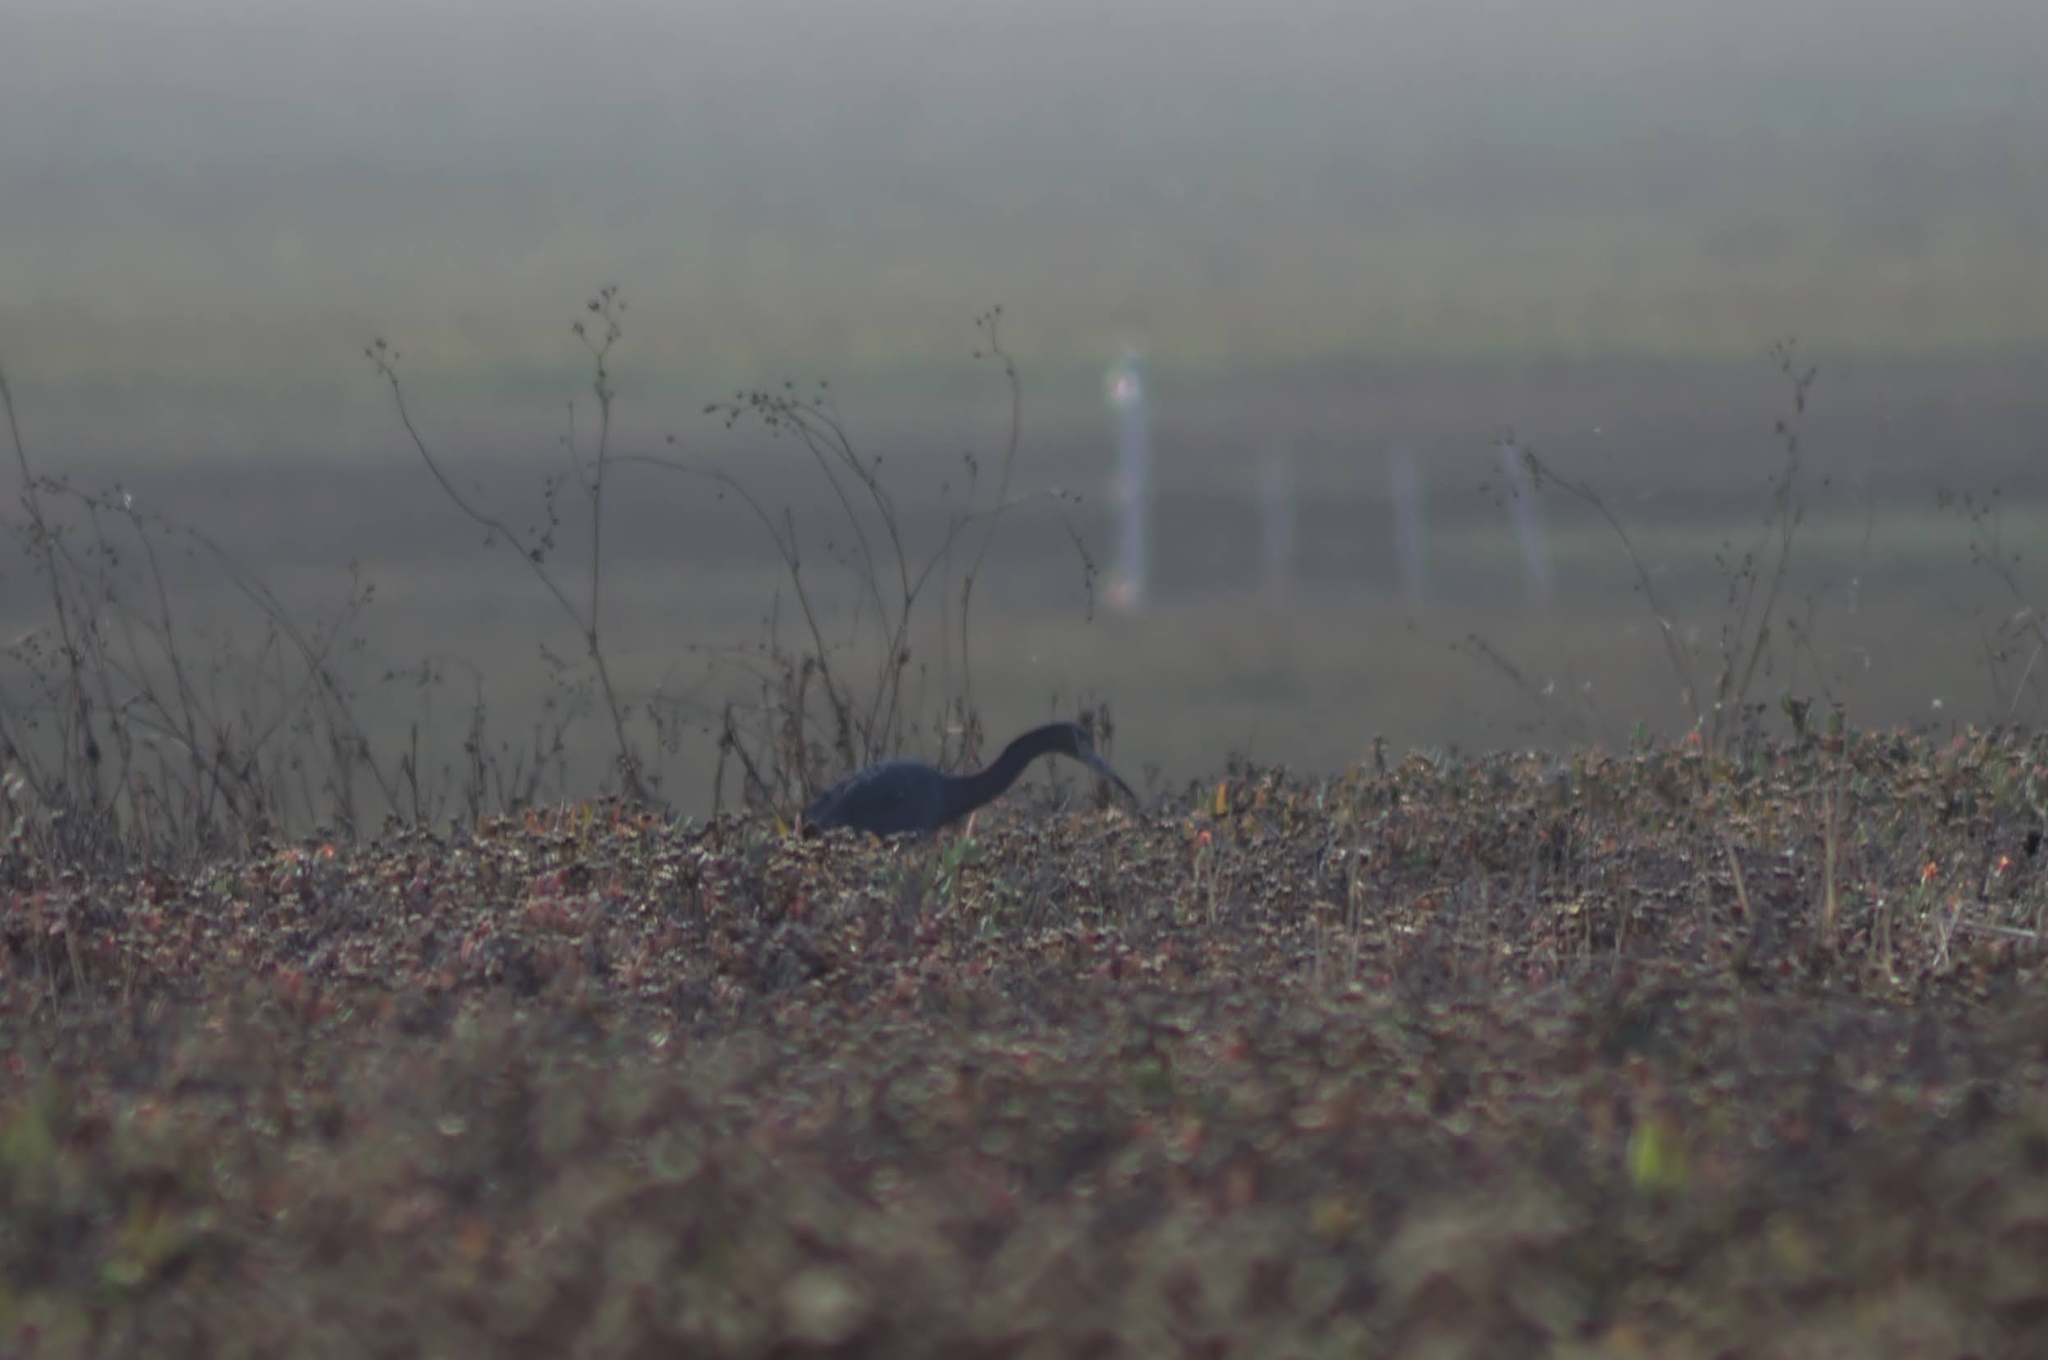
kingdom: Animalia
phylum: Chordata
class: Aves
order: Pelecaniformes
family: Ardeidae
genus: Egretta
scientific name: Egretta caerulea
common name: Little blue heron
